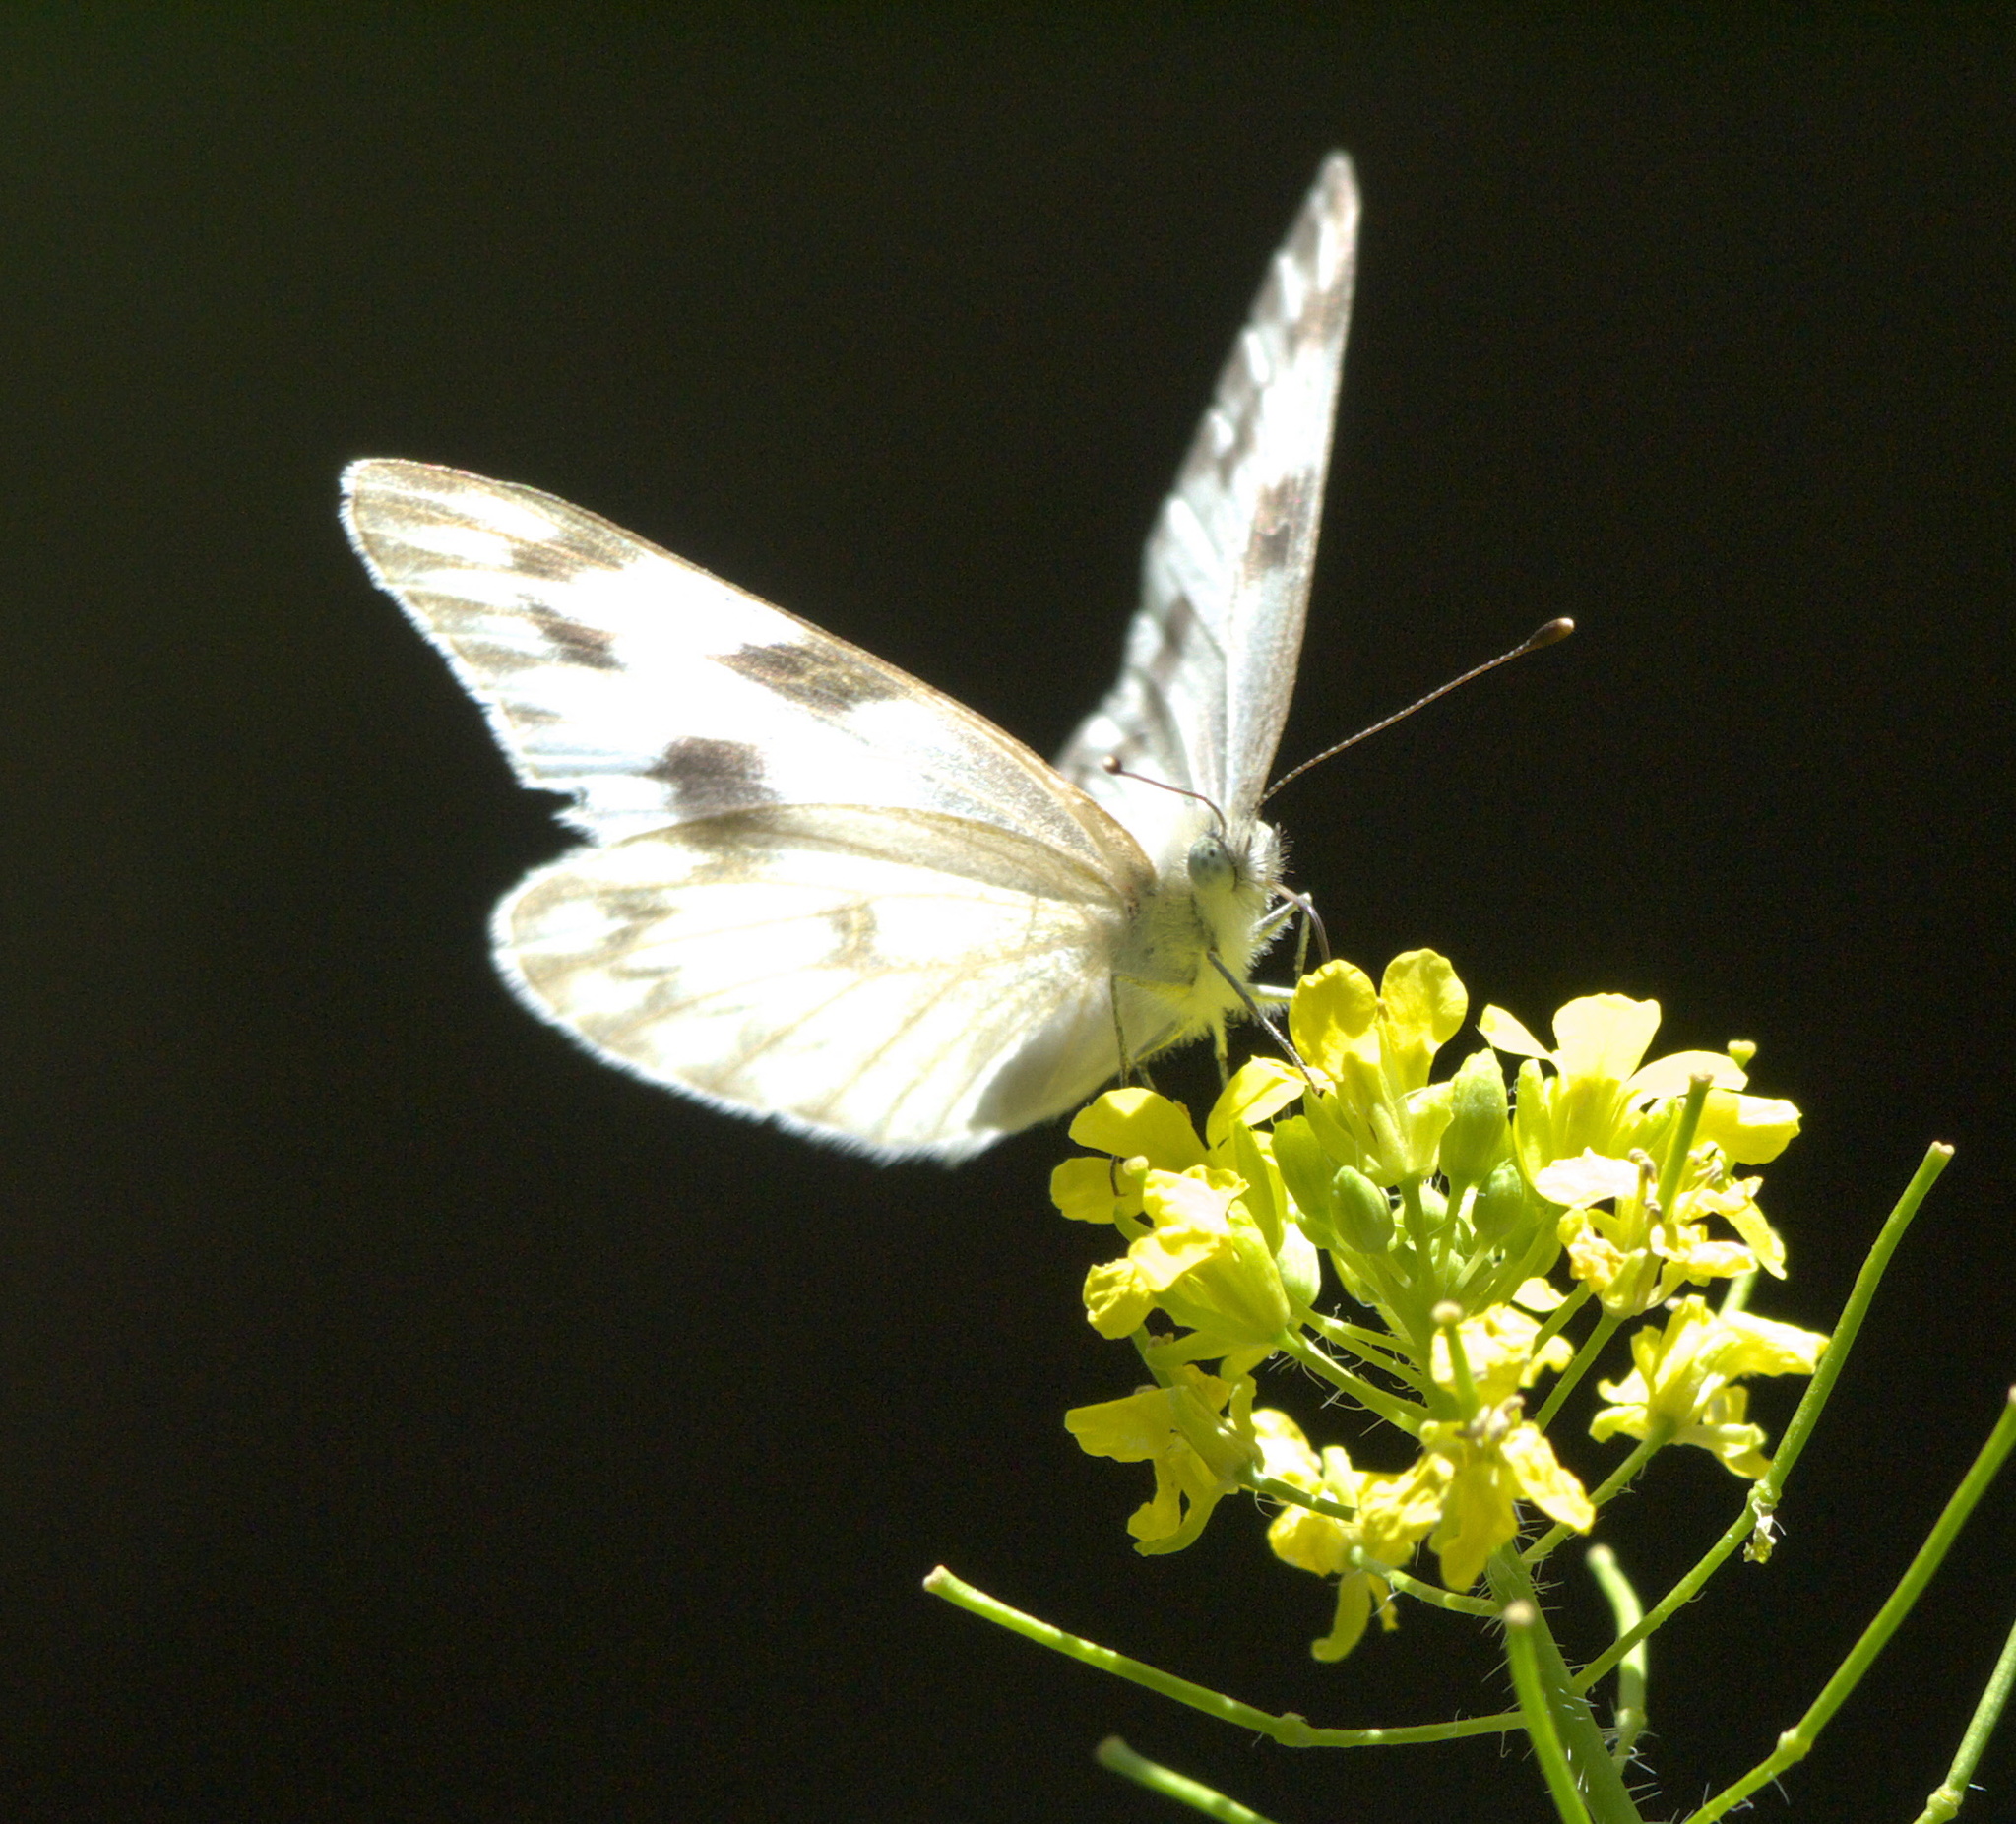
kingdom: Animalia
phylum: Arthropoda
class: Insecta
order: Lepidoptera
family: Pieridae
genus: Pieris
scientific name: Pieris marginalis
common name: Margined white
